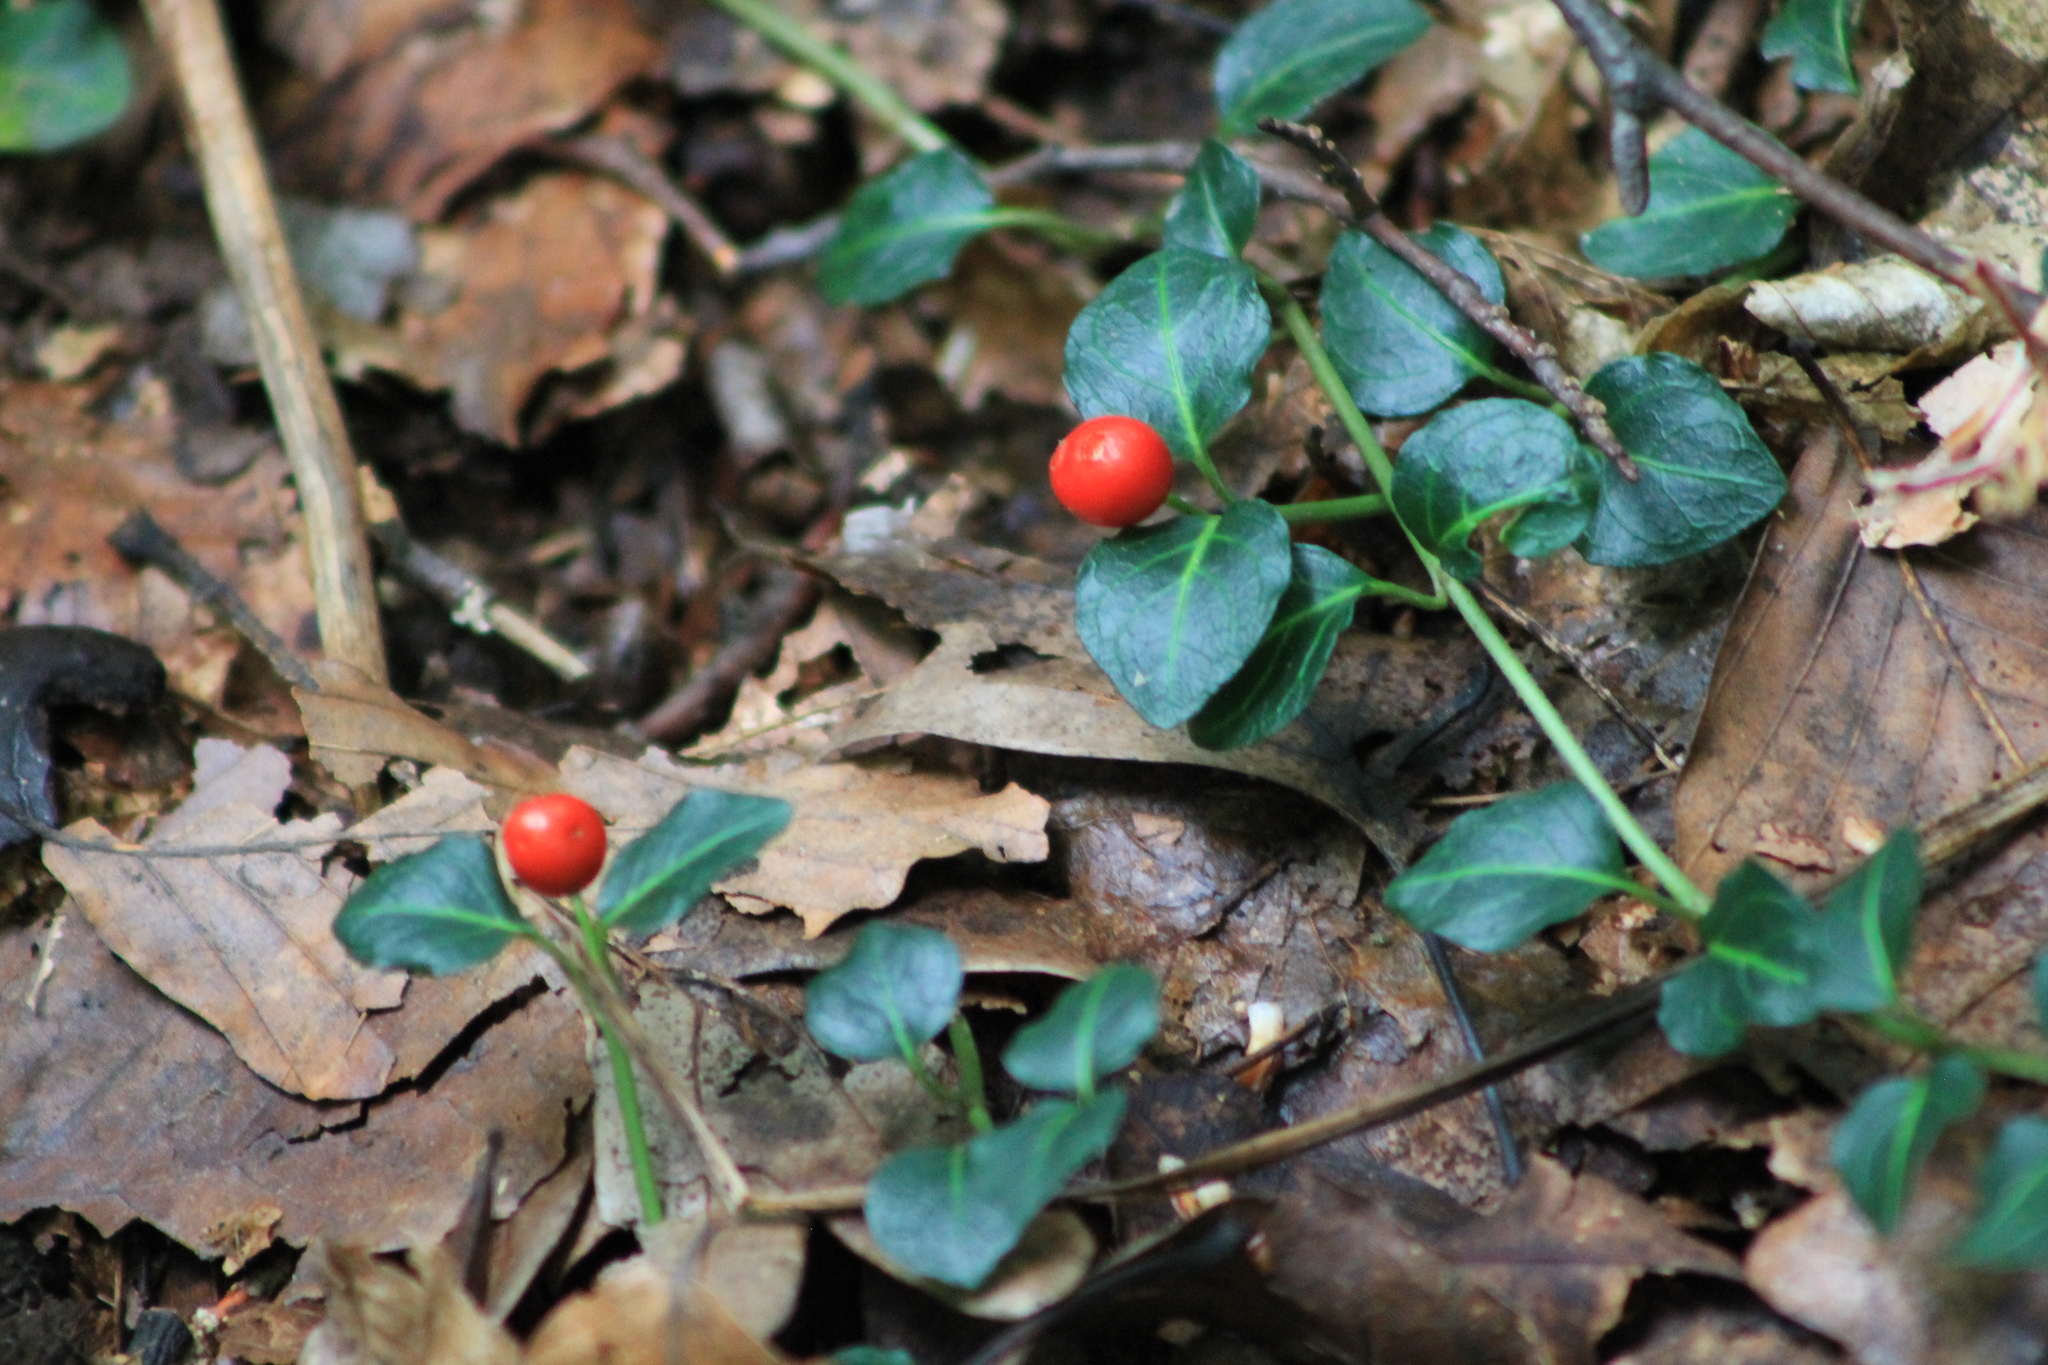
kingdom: Plantae
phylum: Tracheophyta
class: Magnoliopsida
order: Gentianales
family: Rubiaceae
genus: Mitchella
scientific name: Mitchella repens
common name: Partridge-berry
